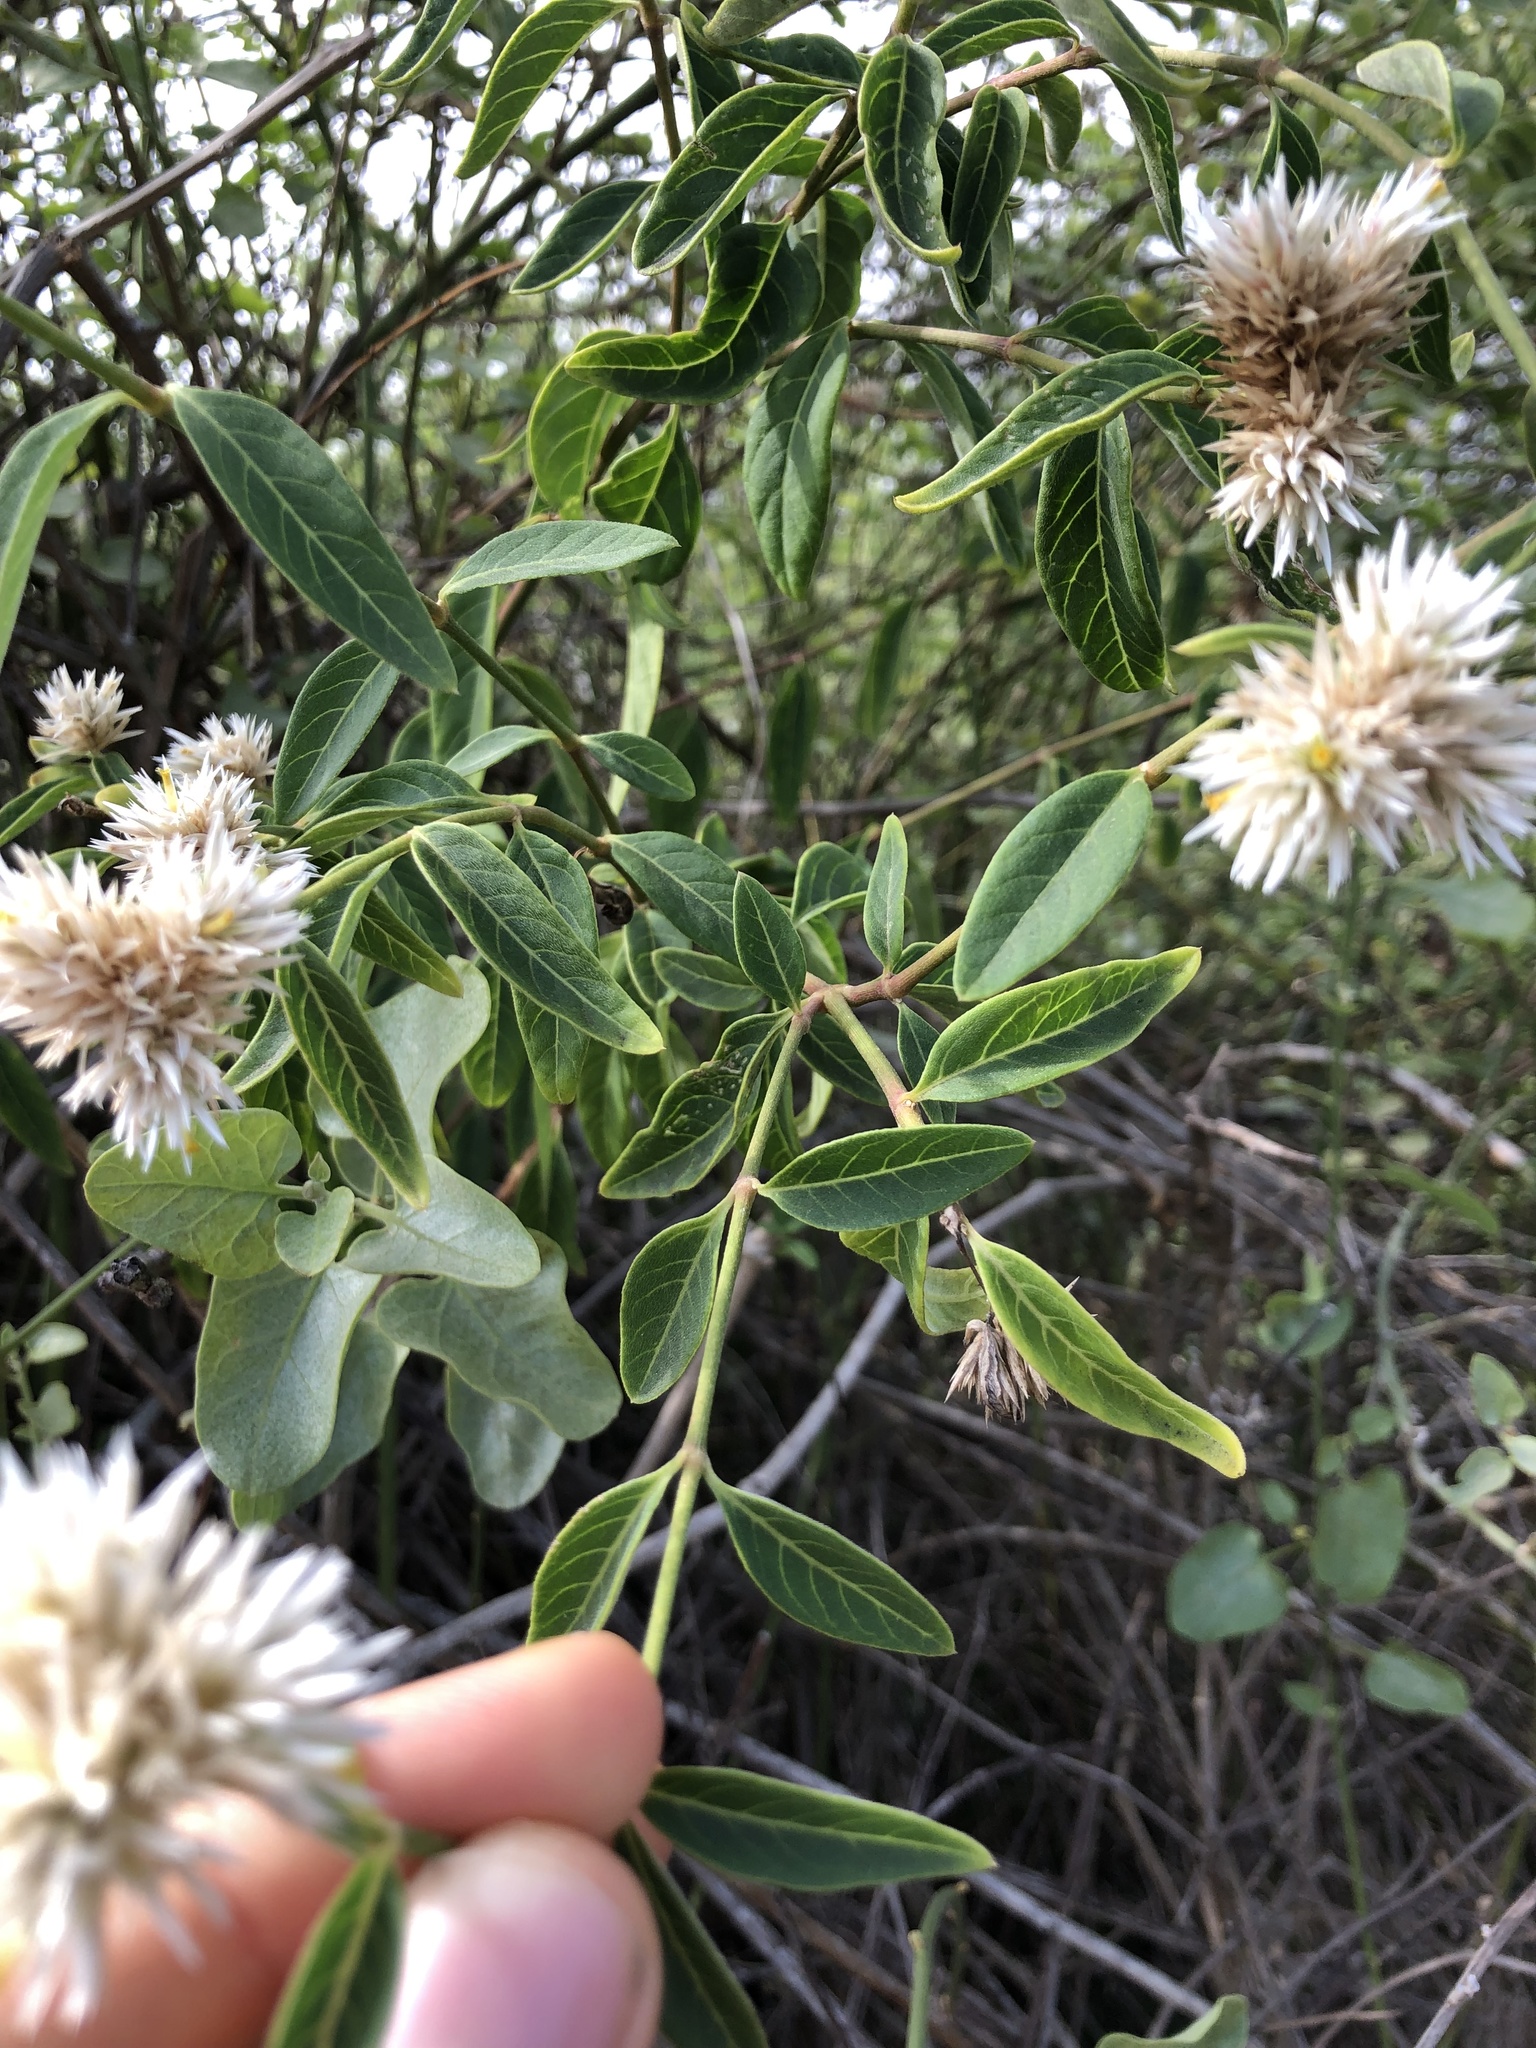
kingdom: Plantae
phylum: Tracheophyta
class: Magnoliopsida
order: Caryophyllales
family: Amaranthaceae
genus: Alternanthera
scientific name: Alternanthera echinocephala
